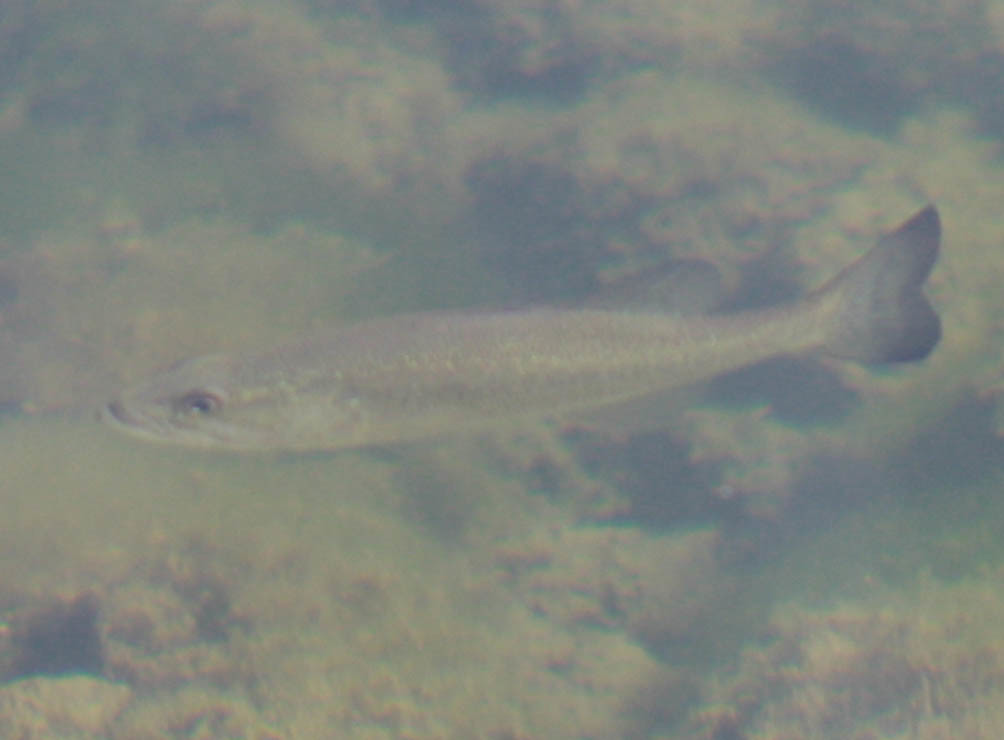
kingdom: Animalia
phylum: Chordata
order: Perciformes
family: Centrarchidae
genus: Micropterus
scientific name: Micropterus
